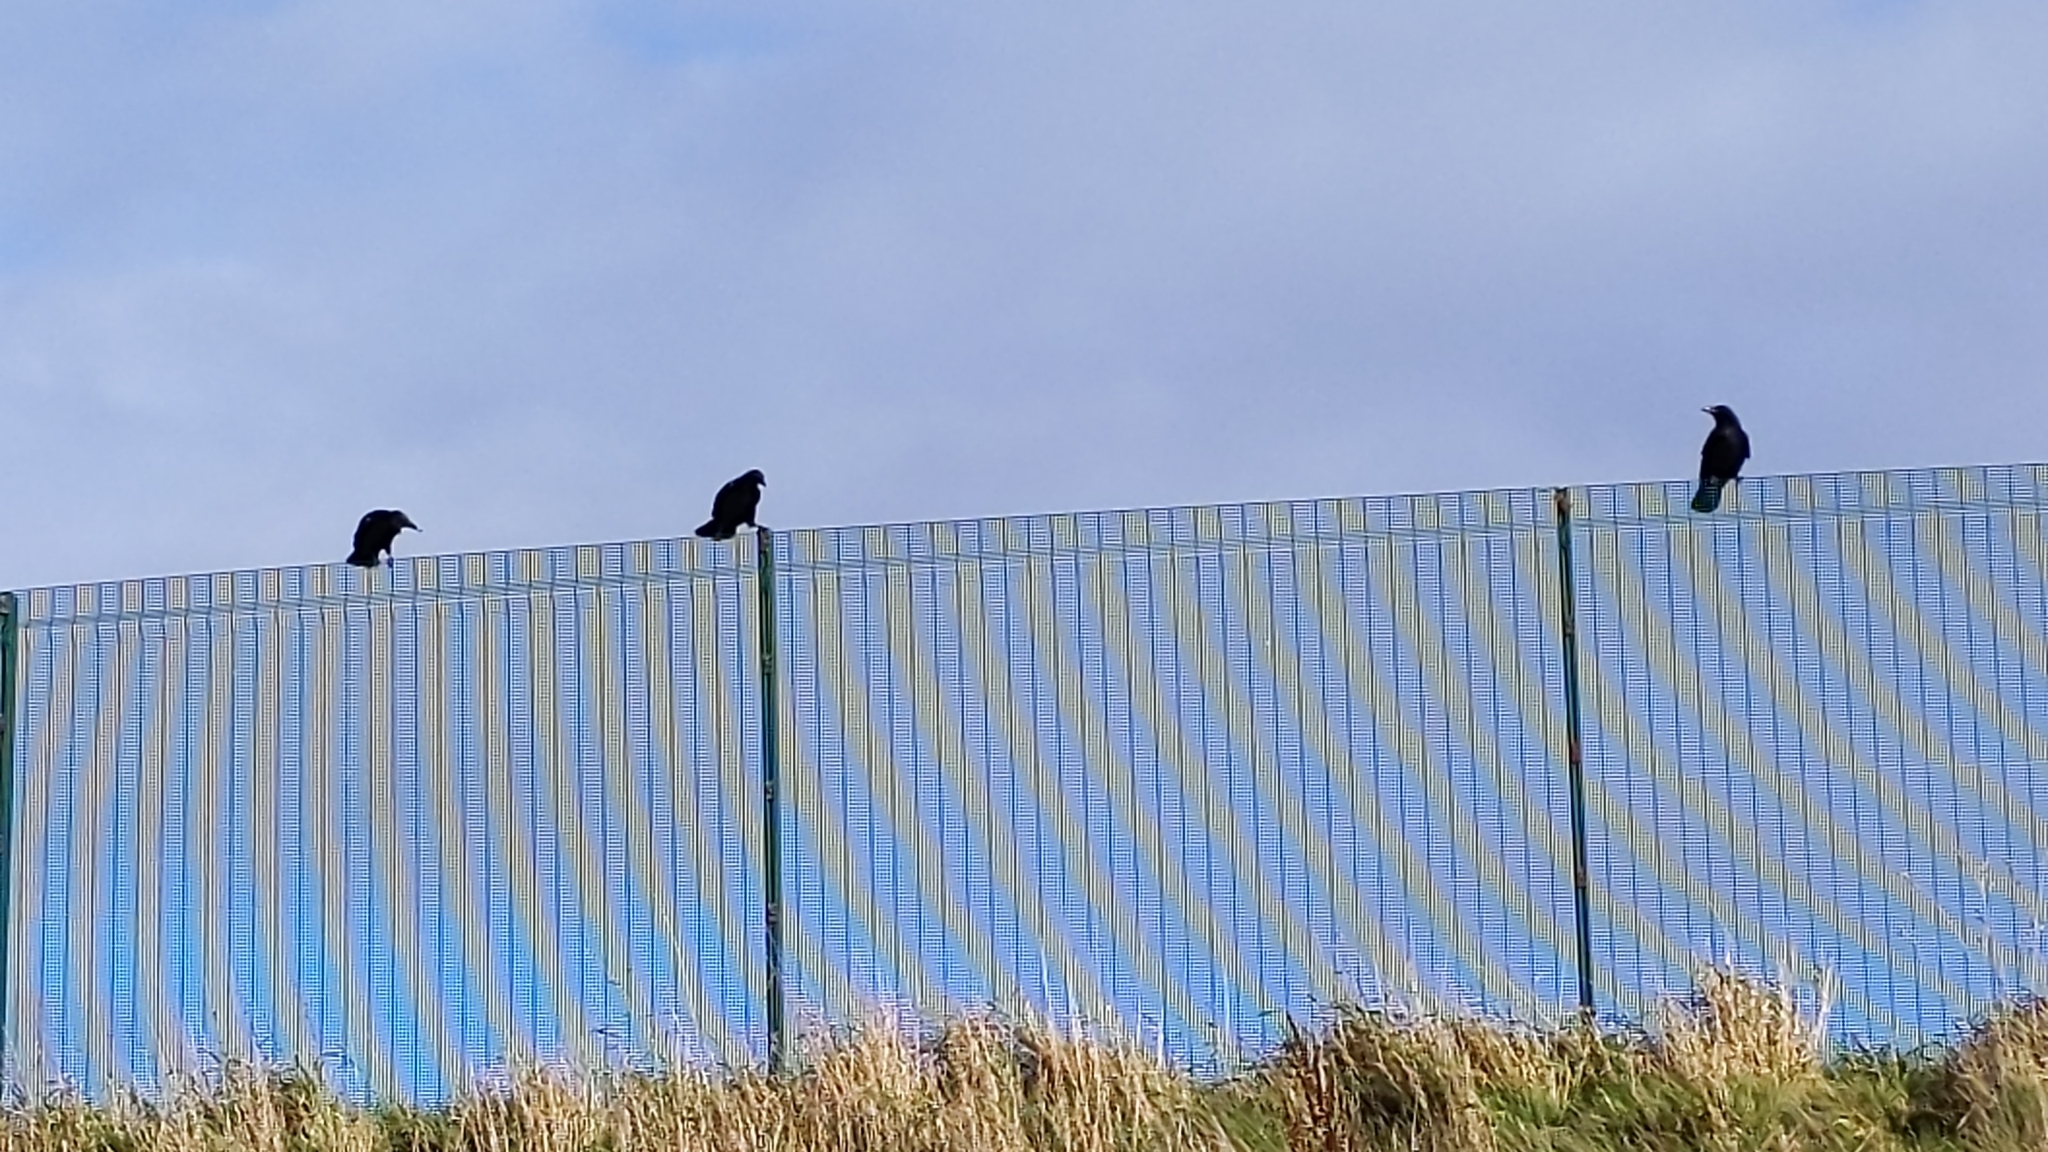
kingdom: Animalia
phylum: Chordata
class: Aves
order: Passeriformes
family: Corvidae
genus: Corvus
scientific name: Corvus corone
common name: Carrion crow
